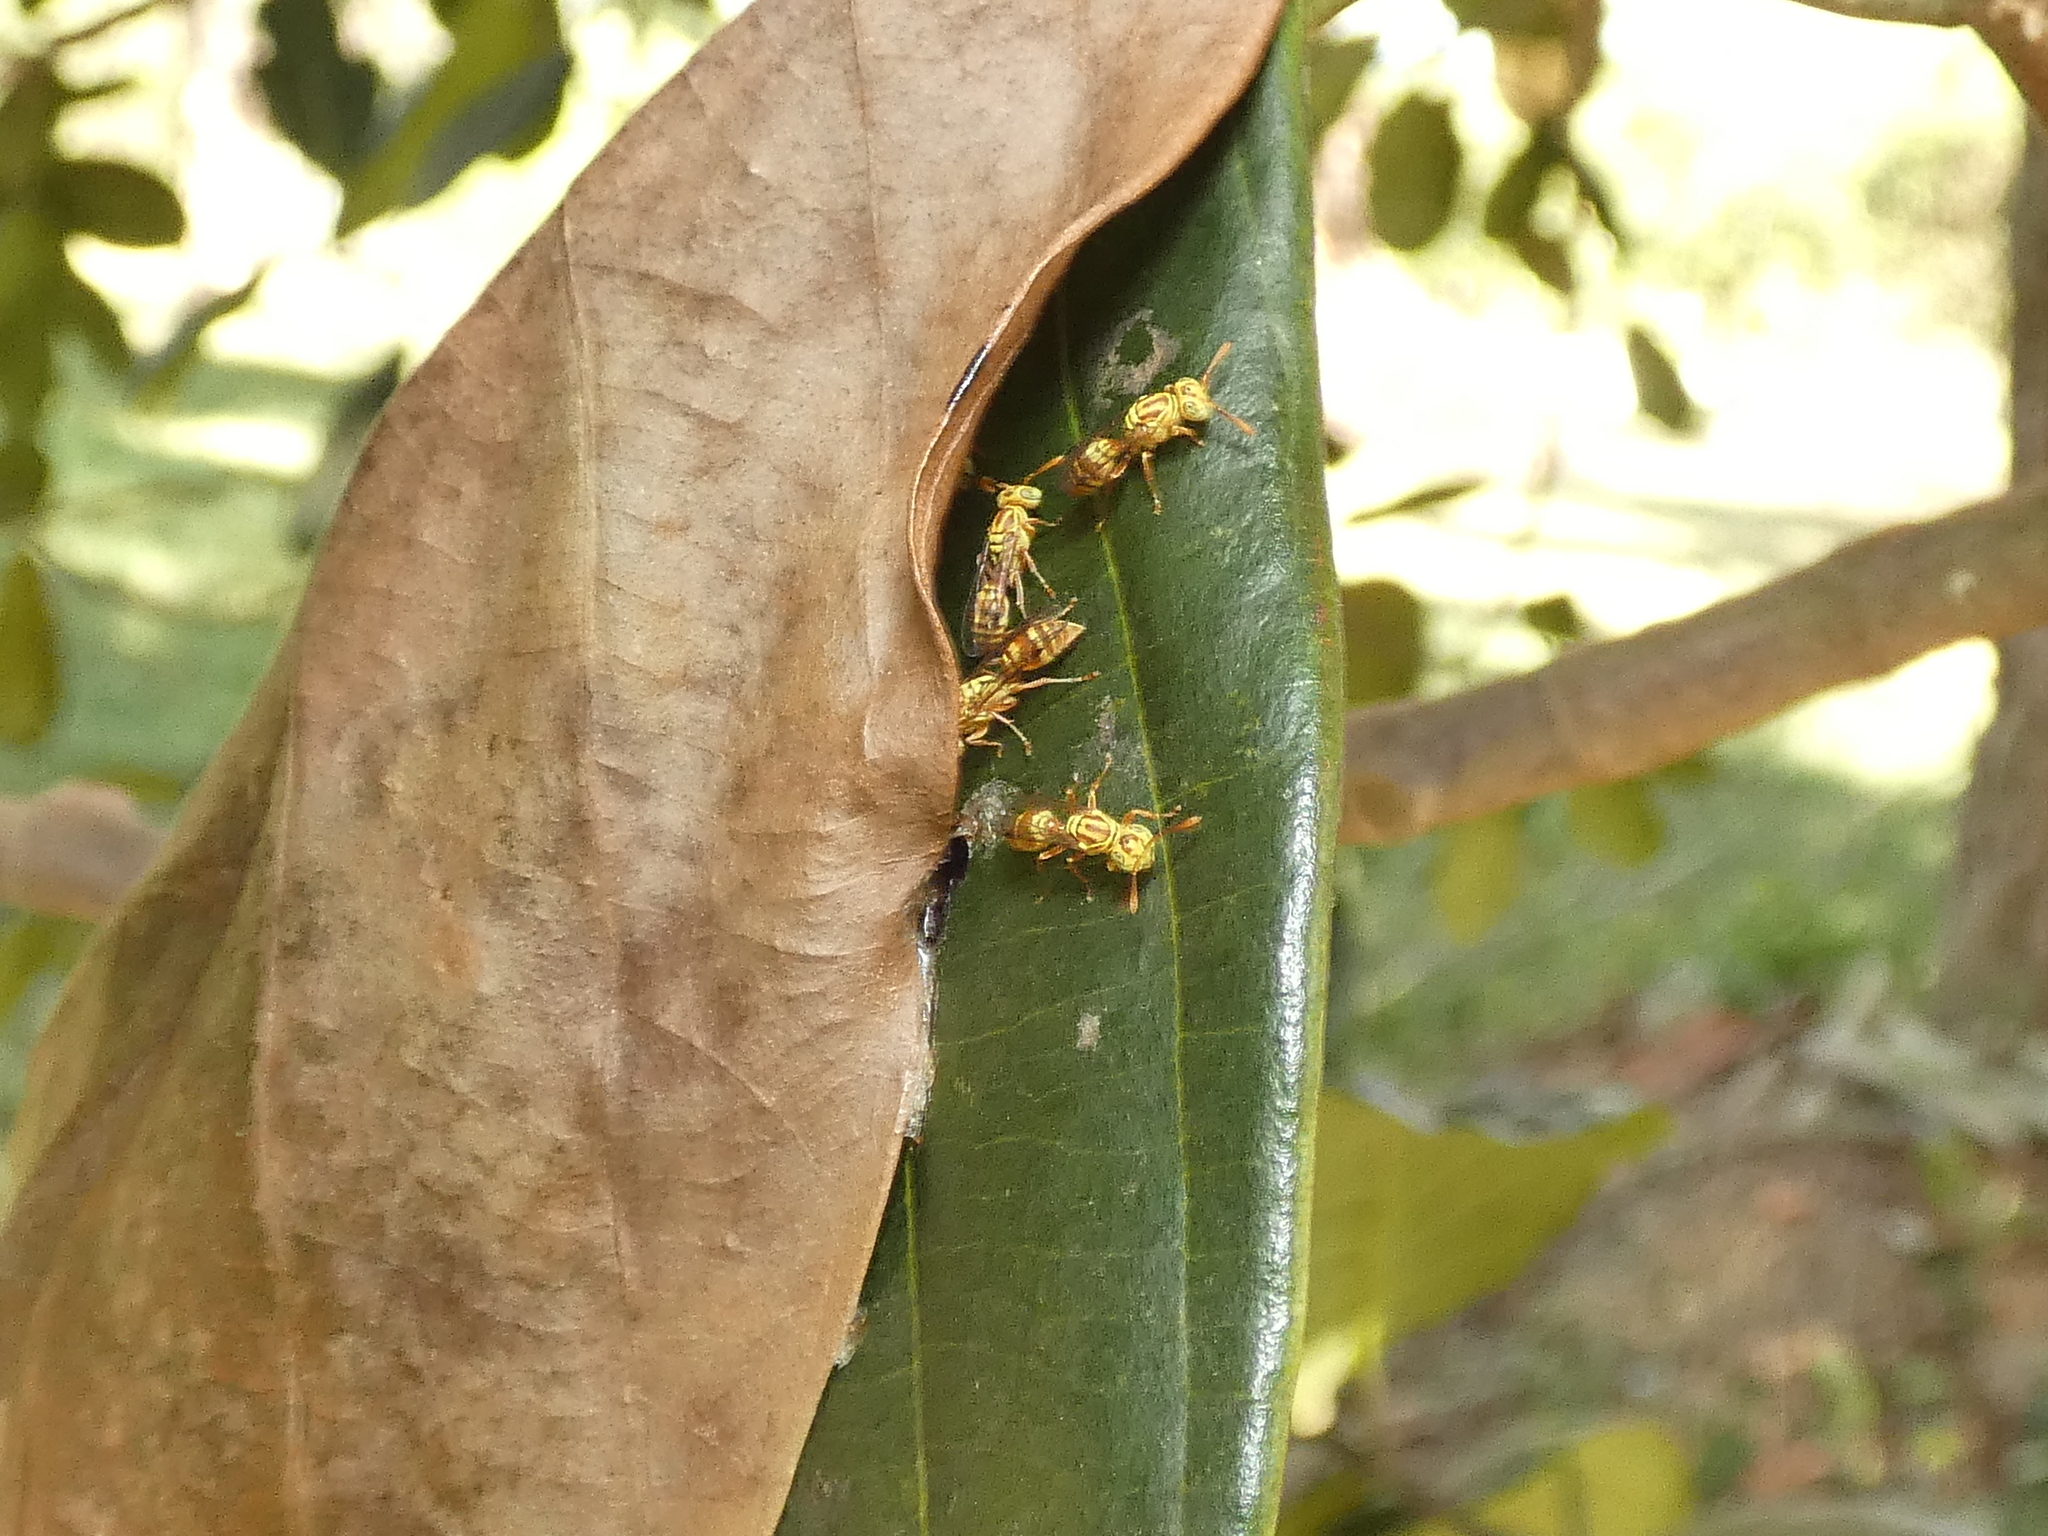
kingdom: Animalia
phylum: Arthropoda
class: Insecta
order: Hymenoptera
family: Vespidae
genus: Protopolybia
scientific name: Protopolybia potiguara
